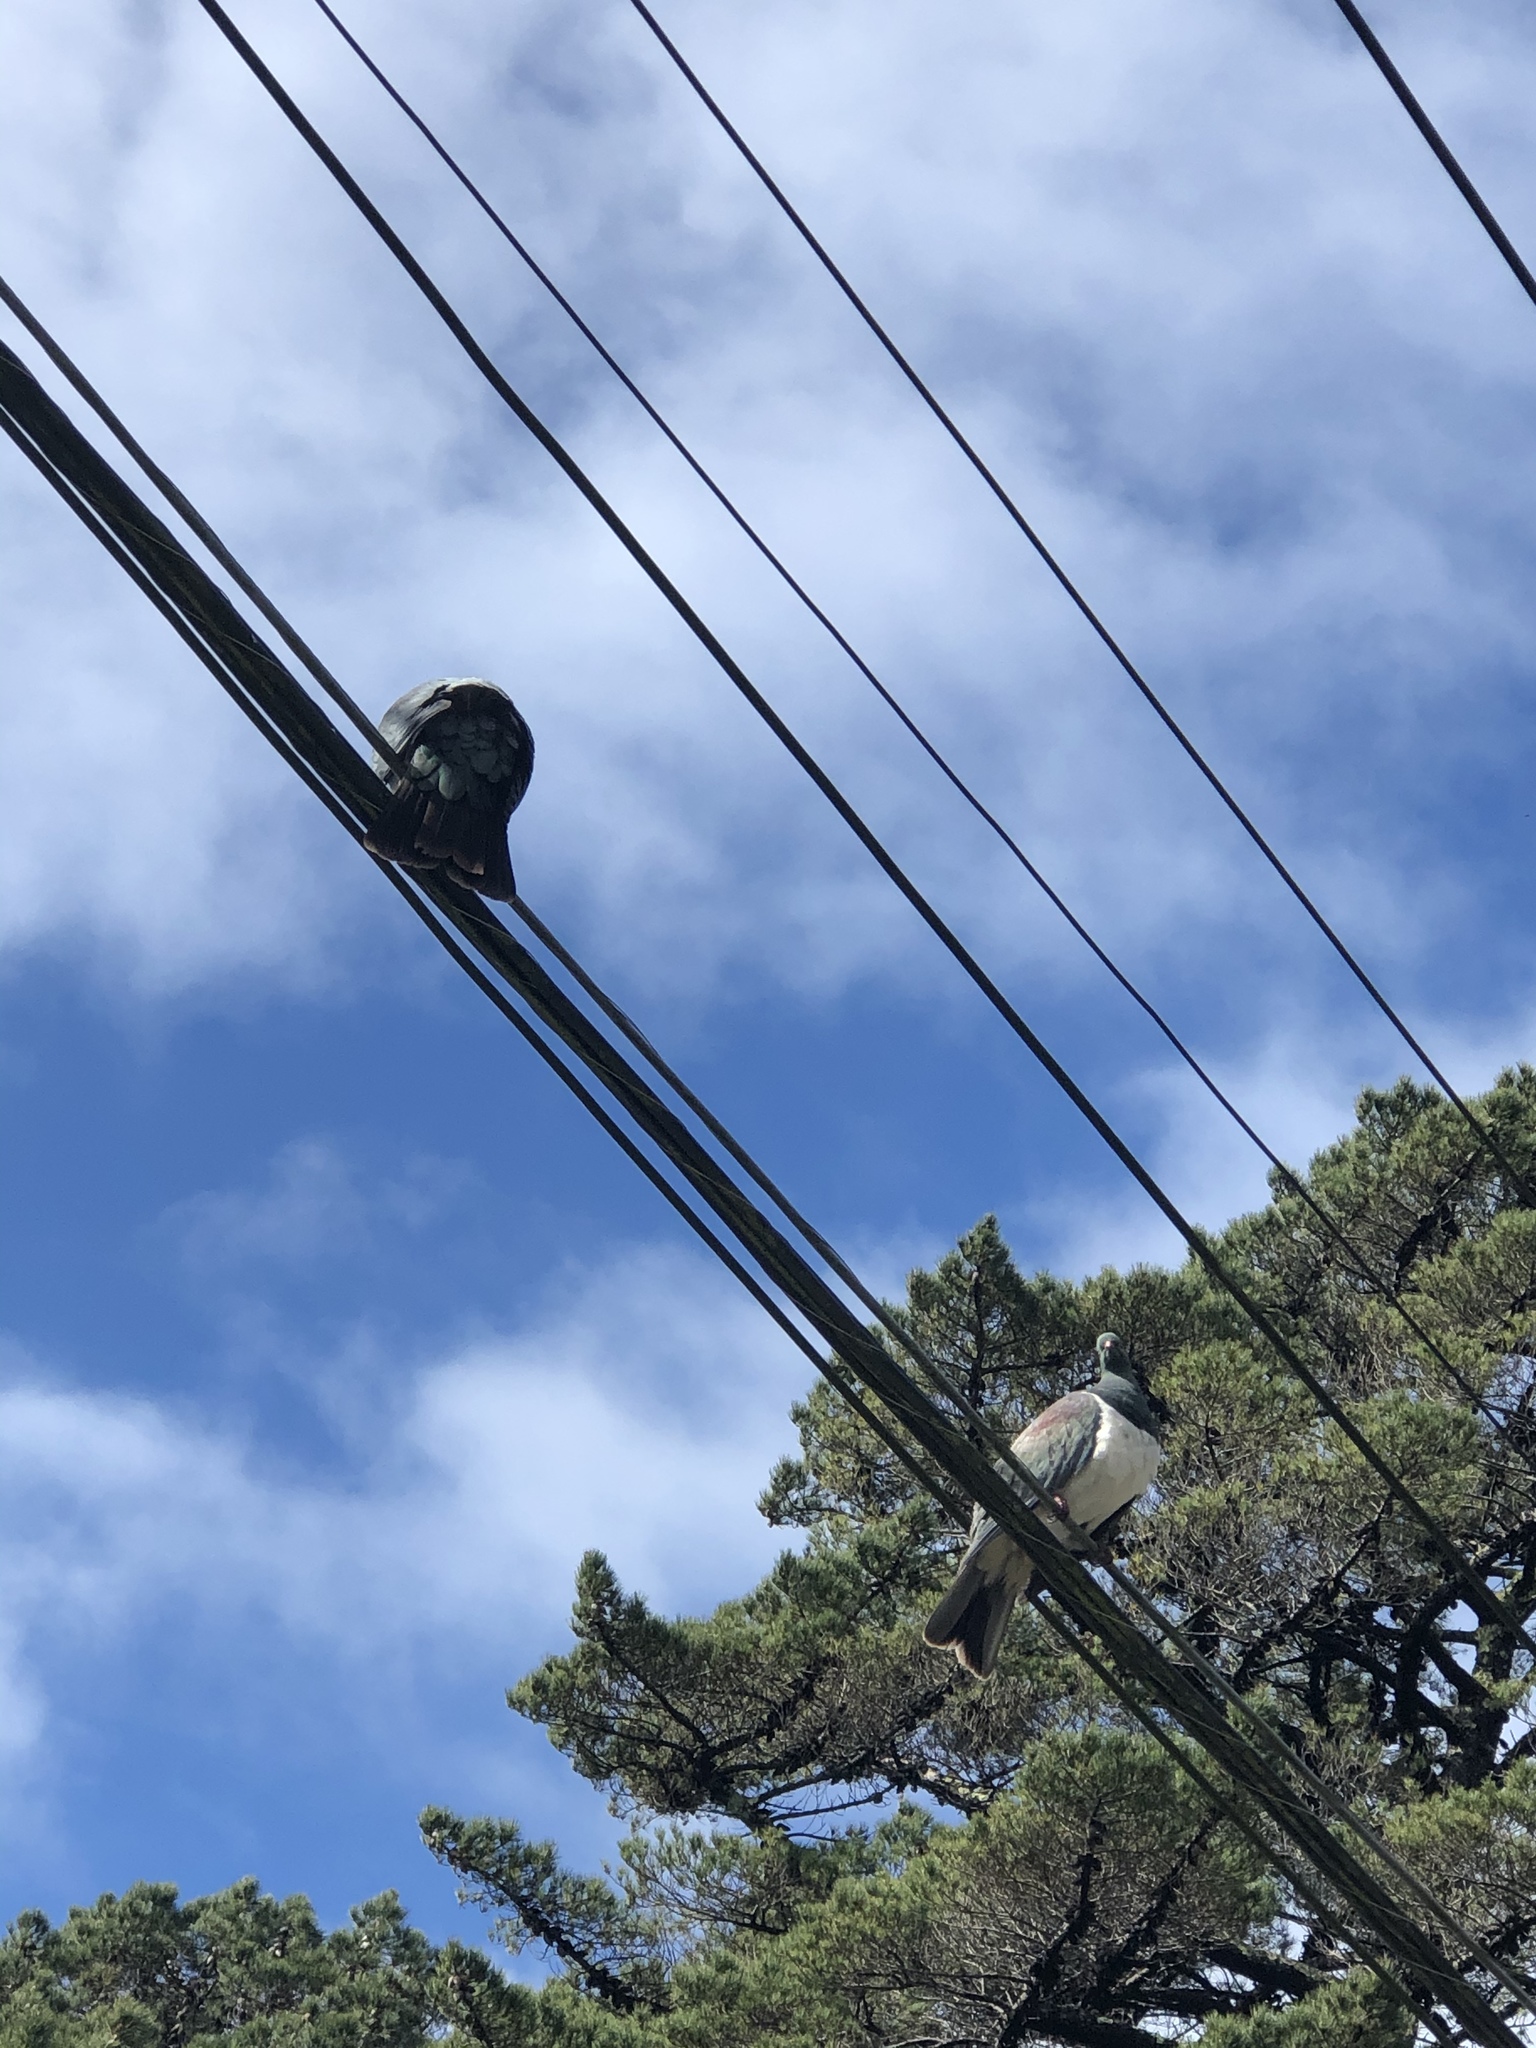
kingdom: Animalia
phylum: Chordata
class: Aves
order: Columbiformes
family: Columbidae
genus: Hemiphaga
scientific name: Hemiphaga novaeseelandiae
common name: New zealand pigeon
